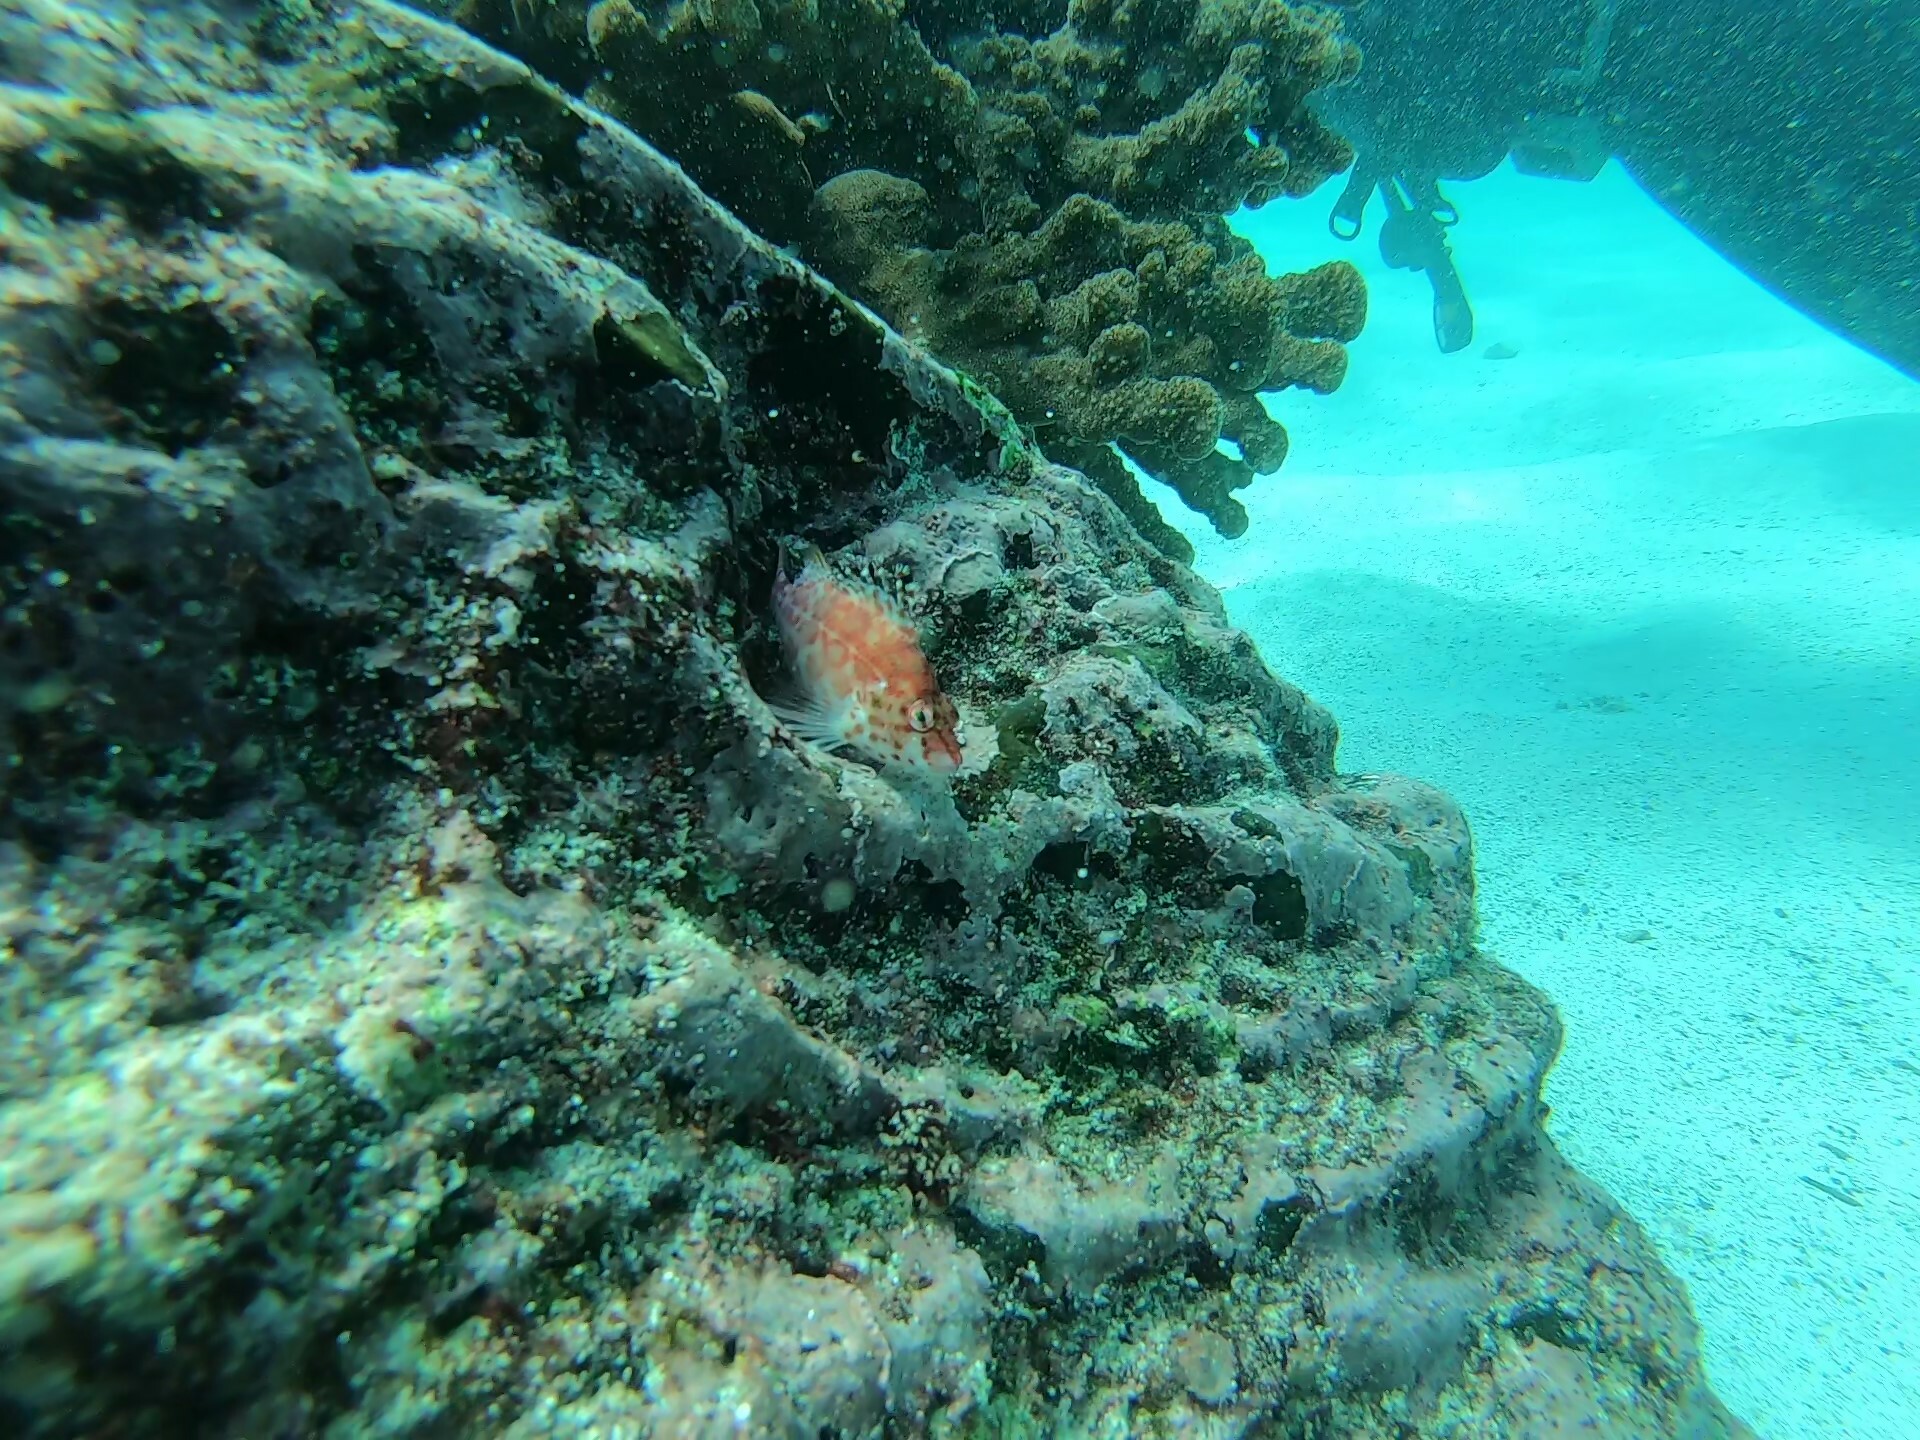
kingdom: Animalia
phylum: Chordata
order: Perciformes
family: Cirrhitidae
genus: Cirrhitichthys
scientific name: Cirrhitichthys oxycephalus
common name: Spotted hawkfish
